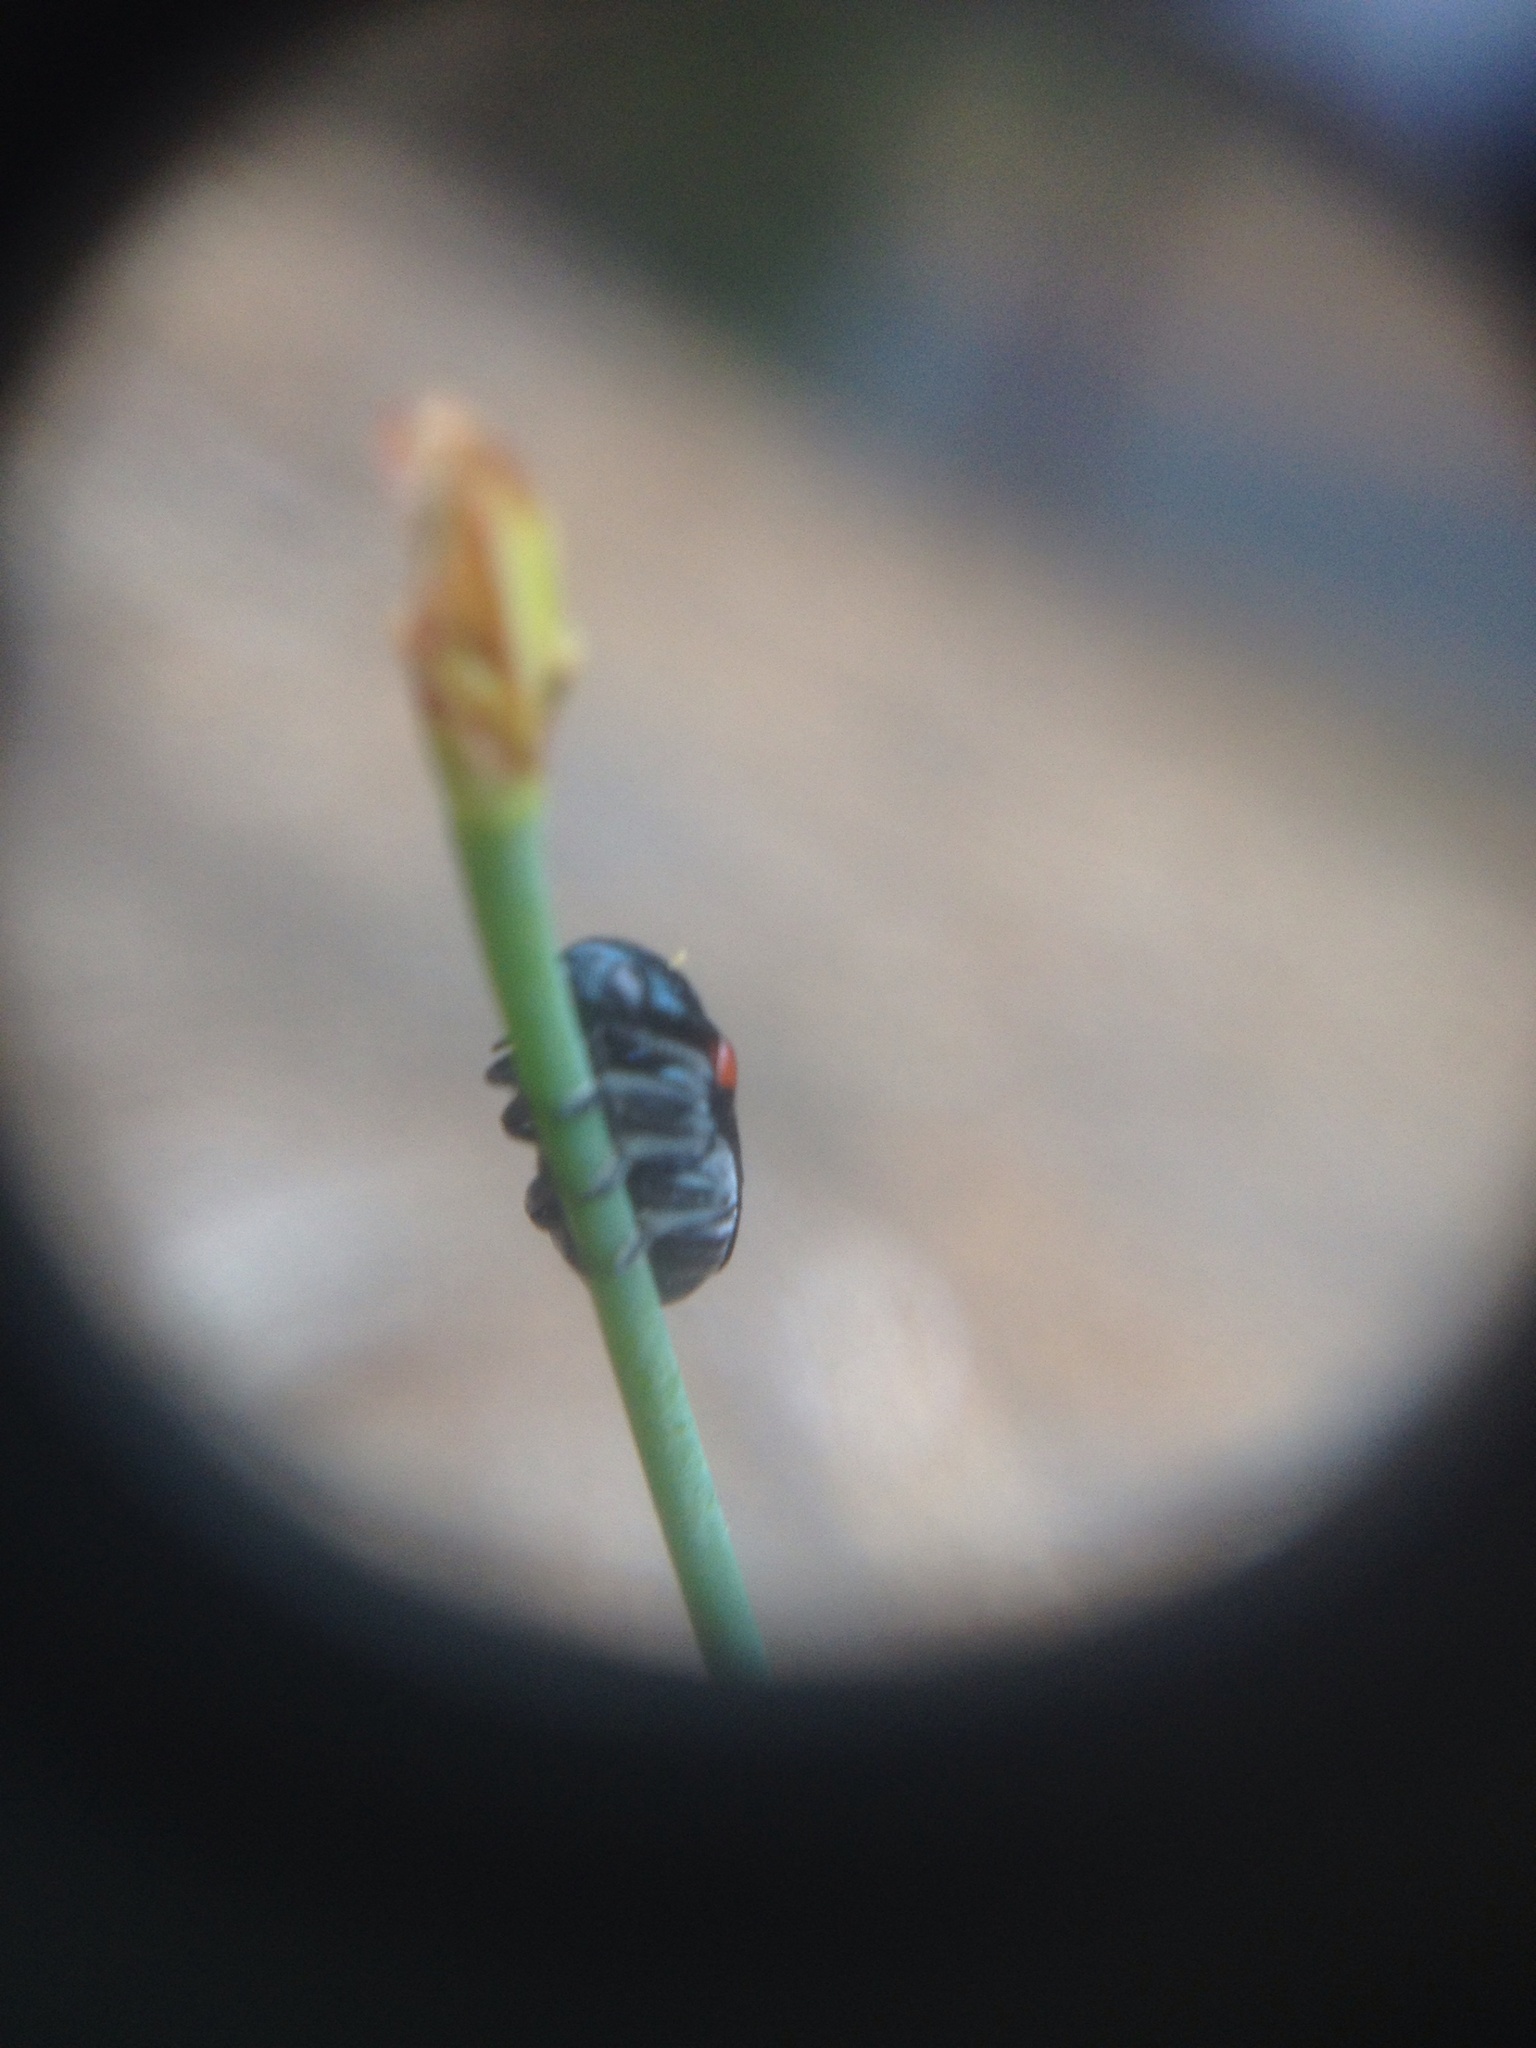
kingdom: Animalia
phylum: Arthropoda
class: Insecta
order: Coleoptera
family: Chrysomelidae
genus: Saxinis
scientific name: Saxinis saucia
